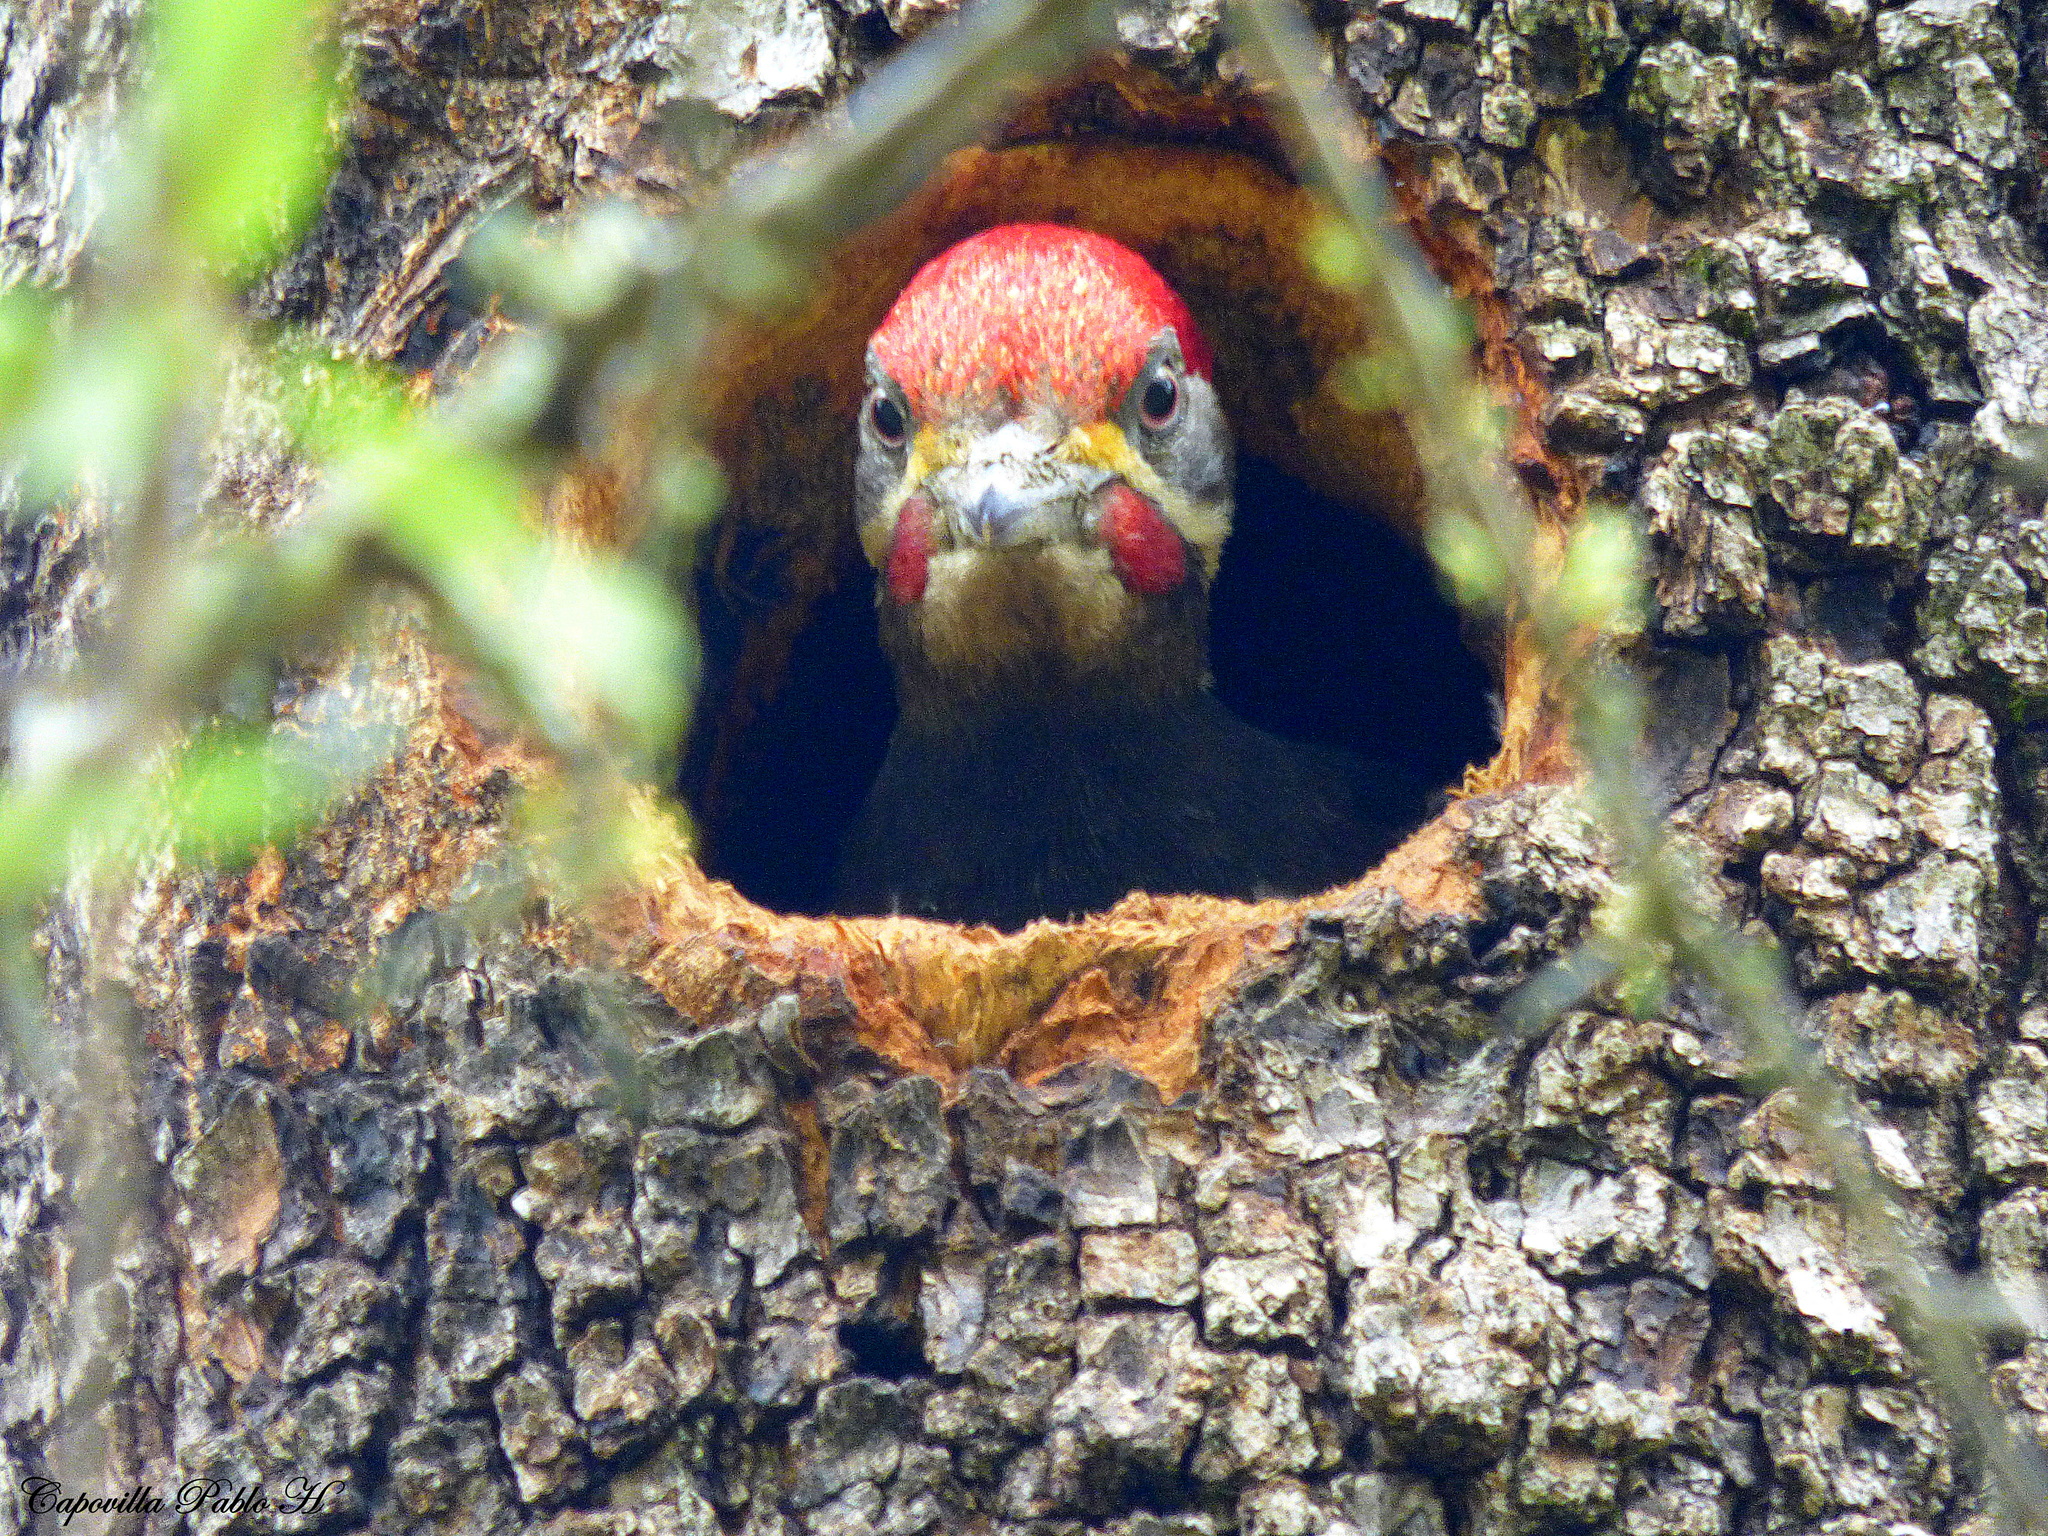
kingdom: Animalia
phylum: Chordata
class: Aves
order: Piciformes
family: Picidae
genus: Dryocopus
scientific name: Dryocopus schulzii
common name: Black-bodied woodpecker
